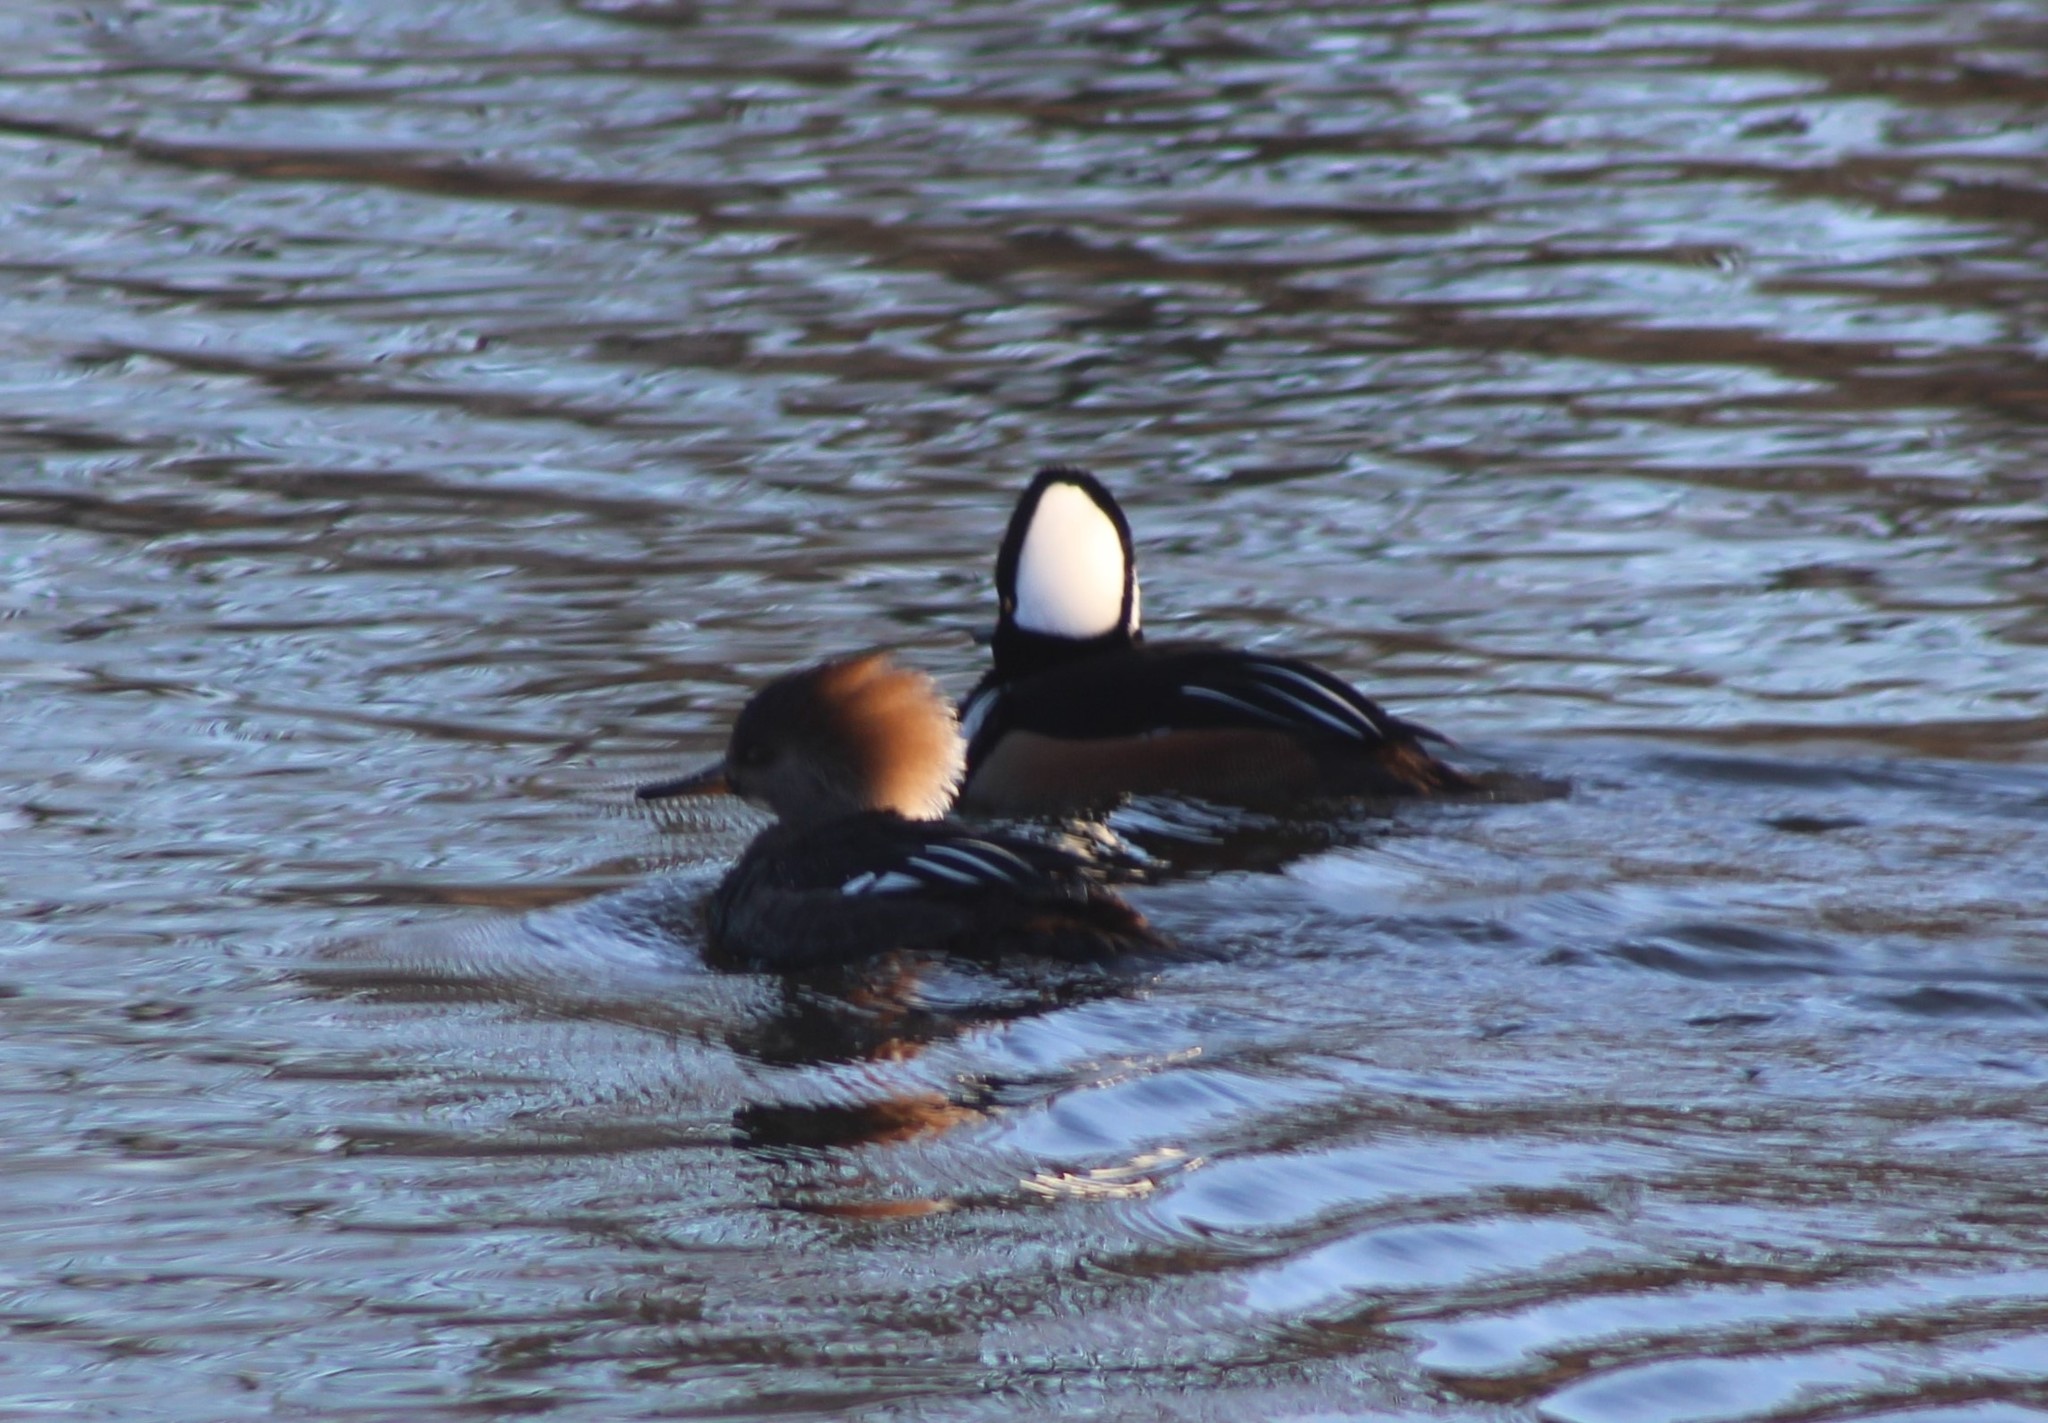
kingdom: Animalia
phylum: Chordata
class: Aves
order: Anseriformes
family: Anatidae
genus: Lophodytes
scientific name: Lophodytes cucullatus
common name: Hooded merganser
